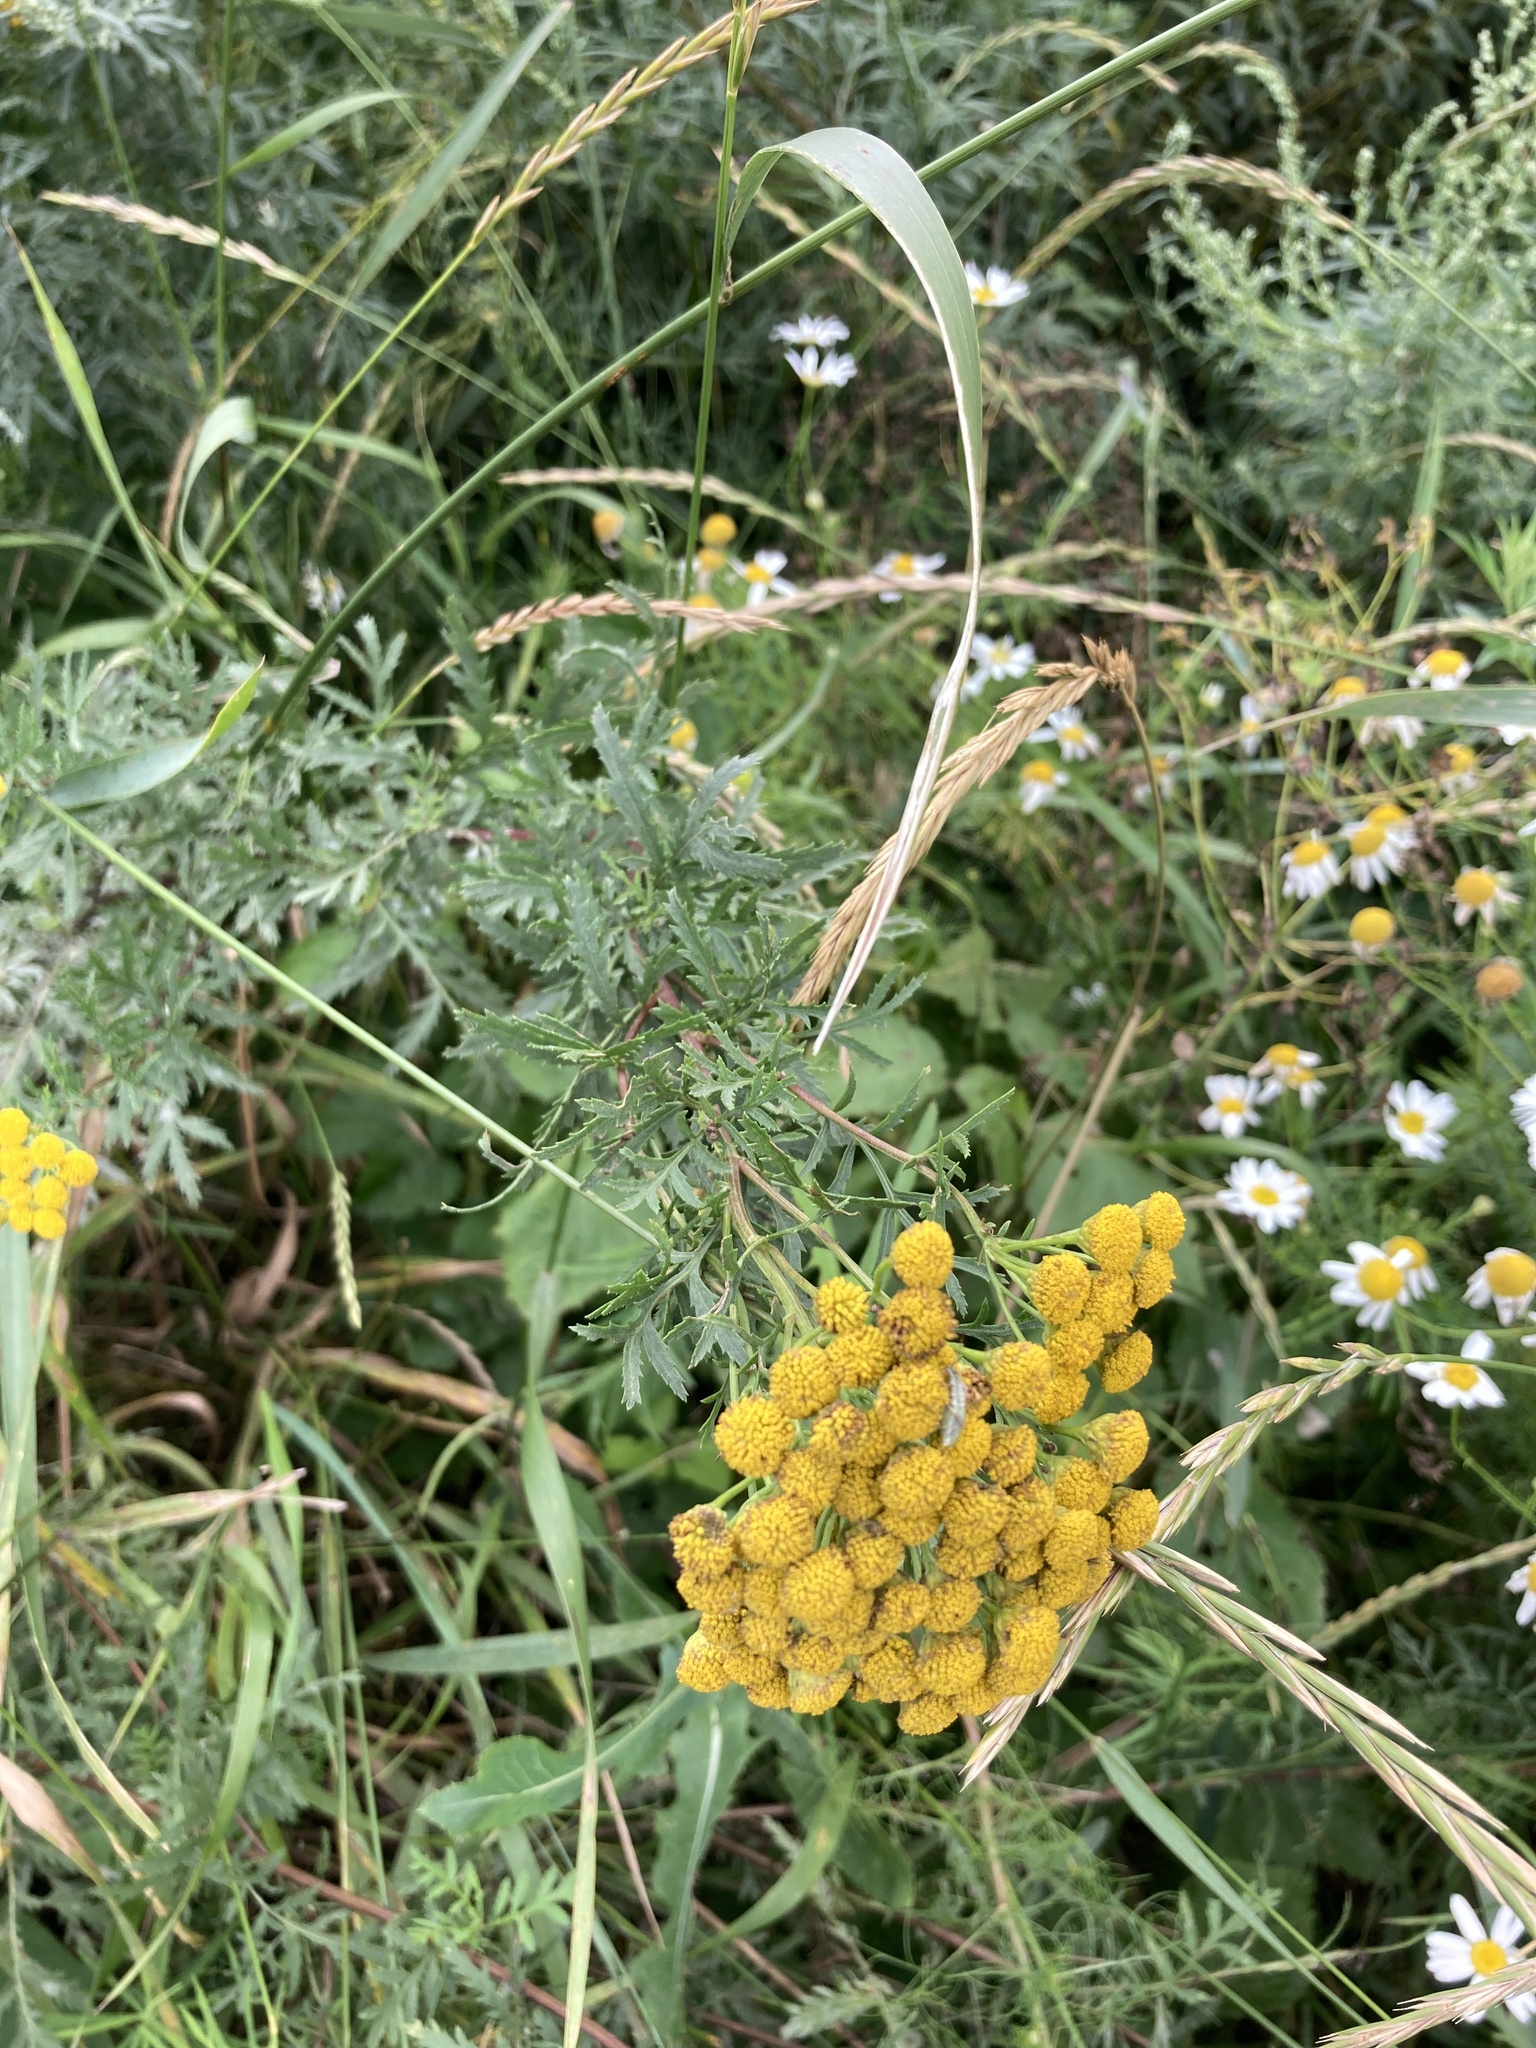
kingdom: Plantae
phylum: Tracheophyta
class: Magnoliopsida
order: Asterales
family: Asteraceae
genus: Tanacetum
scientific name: Tanacetum vulgare
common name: Common tansy
